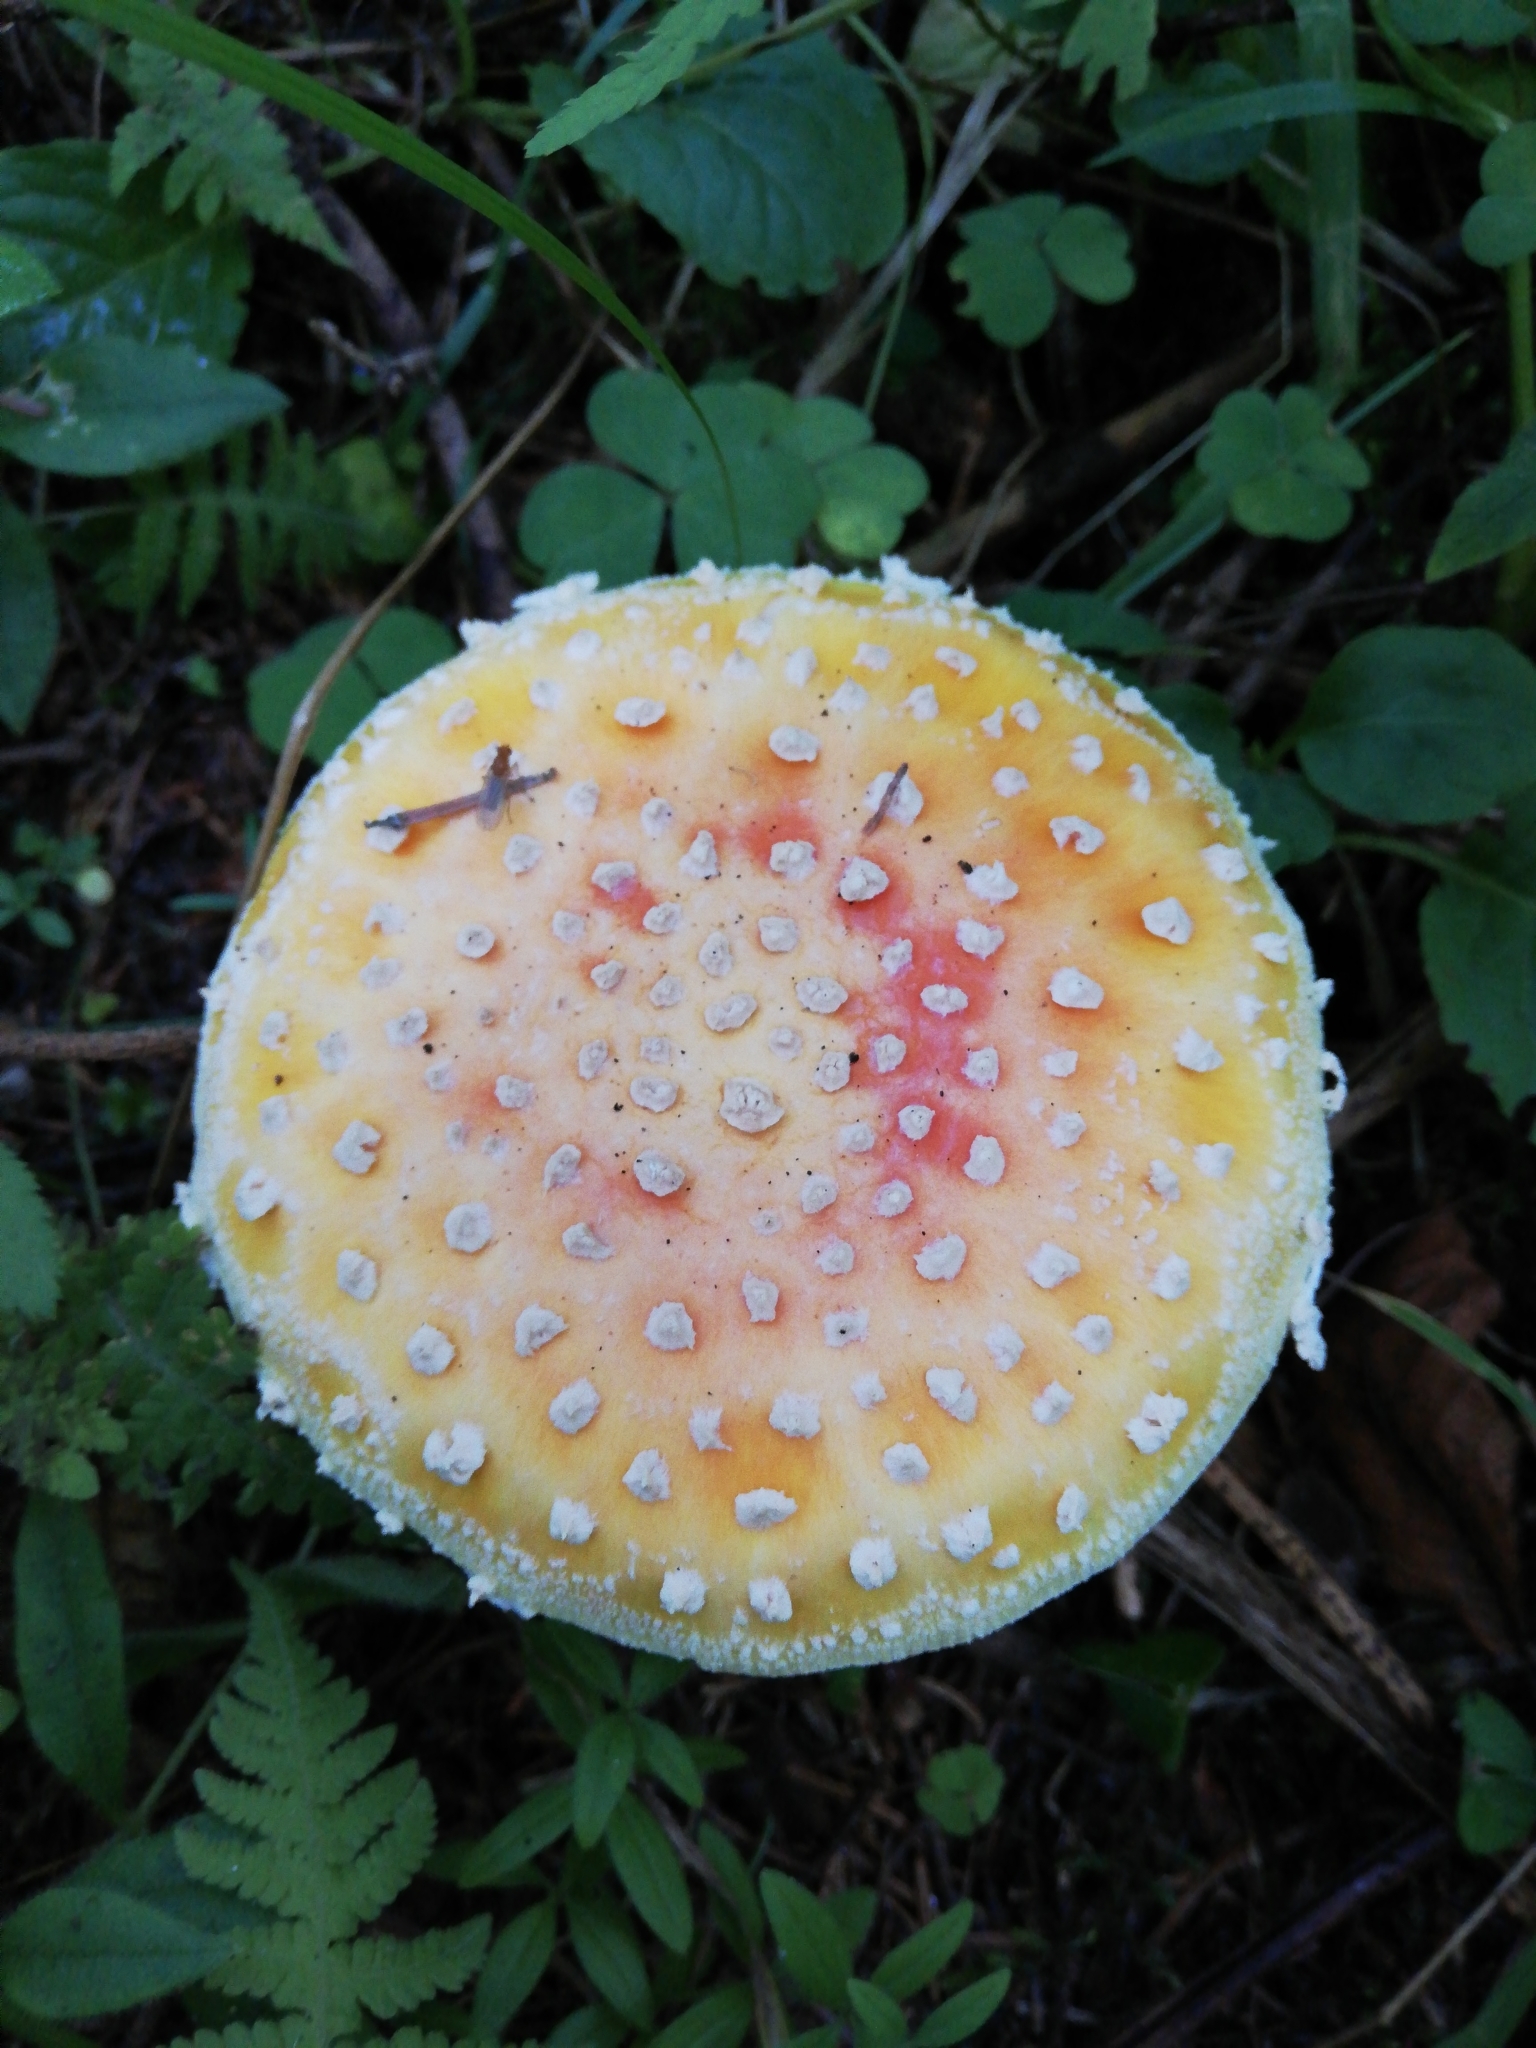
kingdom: Fungi
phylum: Basidiomycota
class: Agaricomycetes
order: Agaricales
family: Amanitaceae
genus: Amanita
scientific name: Amanita muscaria
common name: Fly agaric
